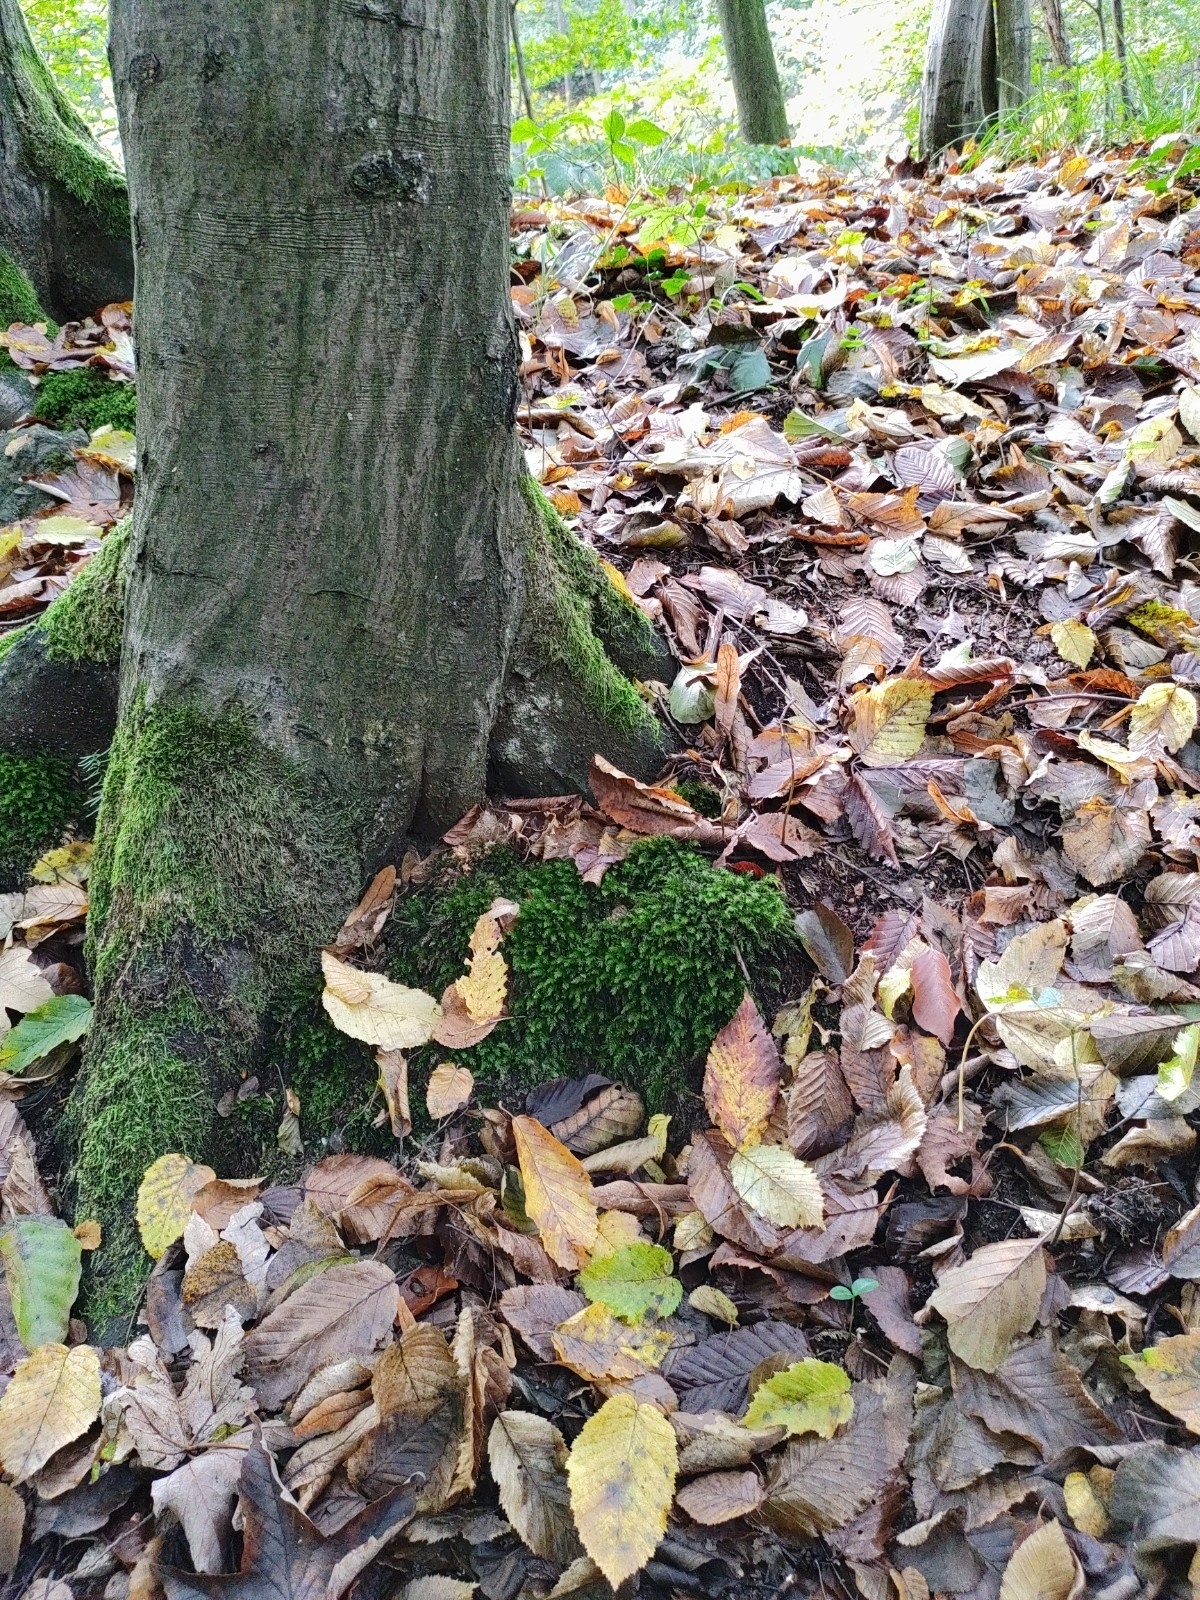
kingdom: Plantae
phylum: Bryophyta
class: Bryopsida
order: Bryales
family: Mniaceae
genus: Mnium
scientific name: Mnium hornum
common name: Swan's-neck leafy moss
